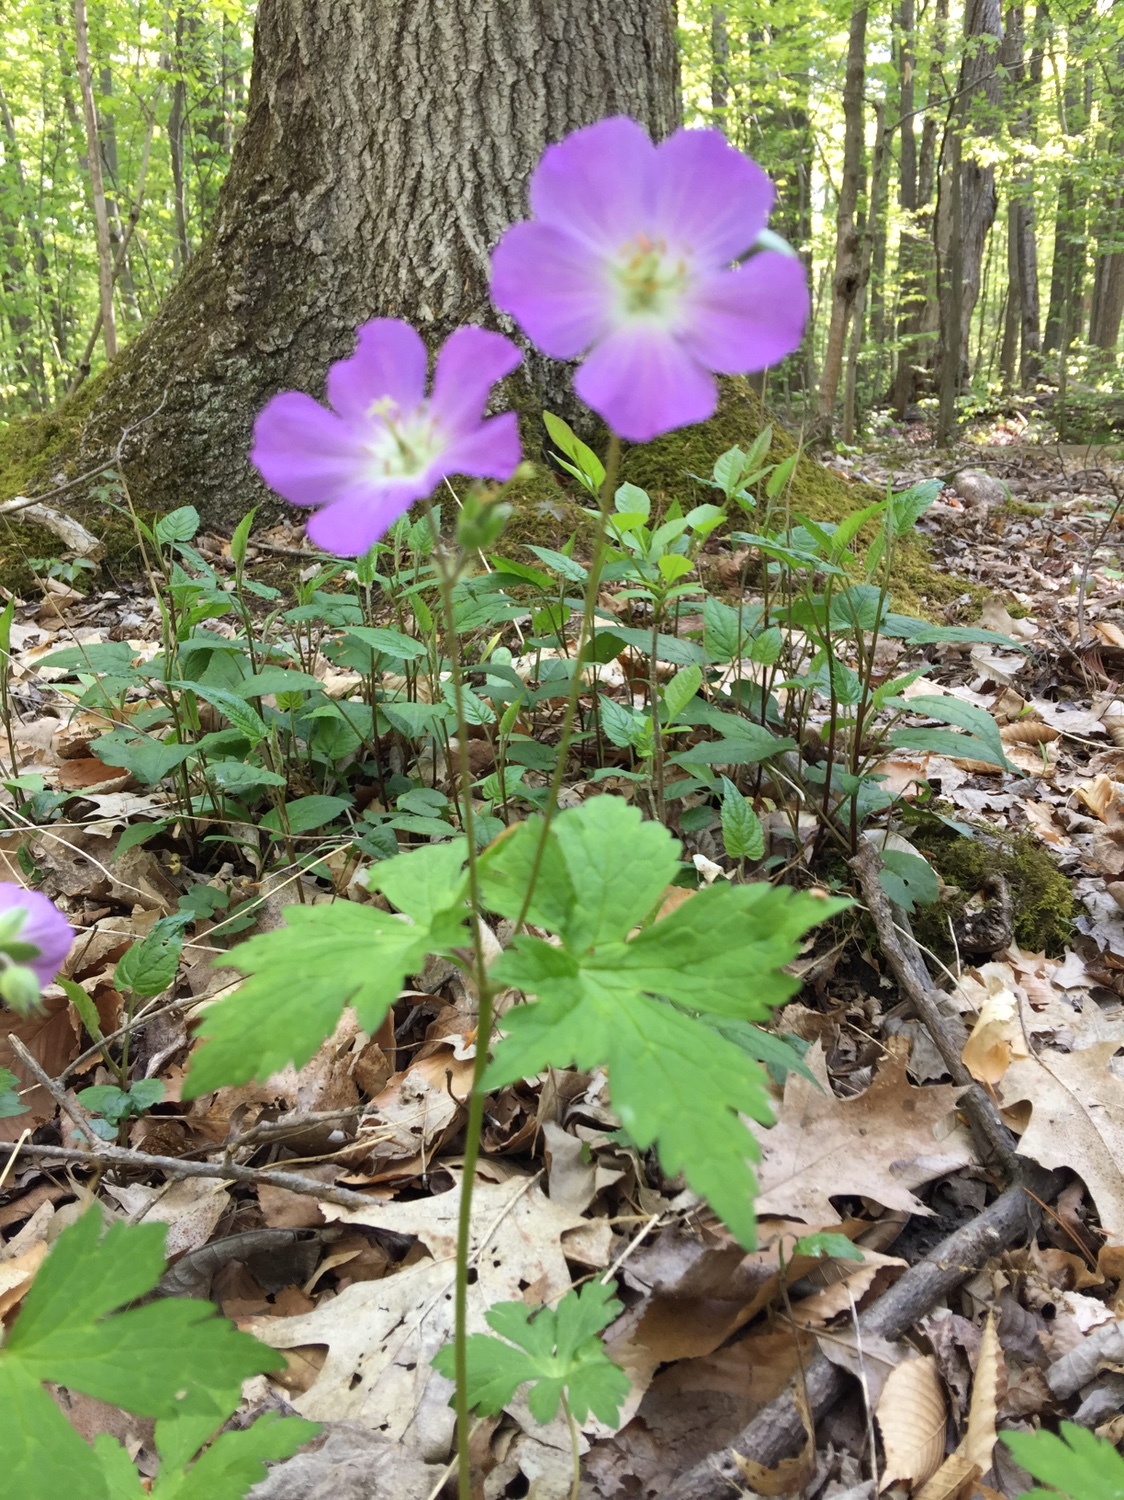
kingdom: Plantae
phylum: Tracheophyta
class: Magnoliopsida
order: Geraniales
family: Geraniaceae
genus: Geranium
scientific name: Geranium maculatum
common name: Spotted geranium
